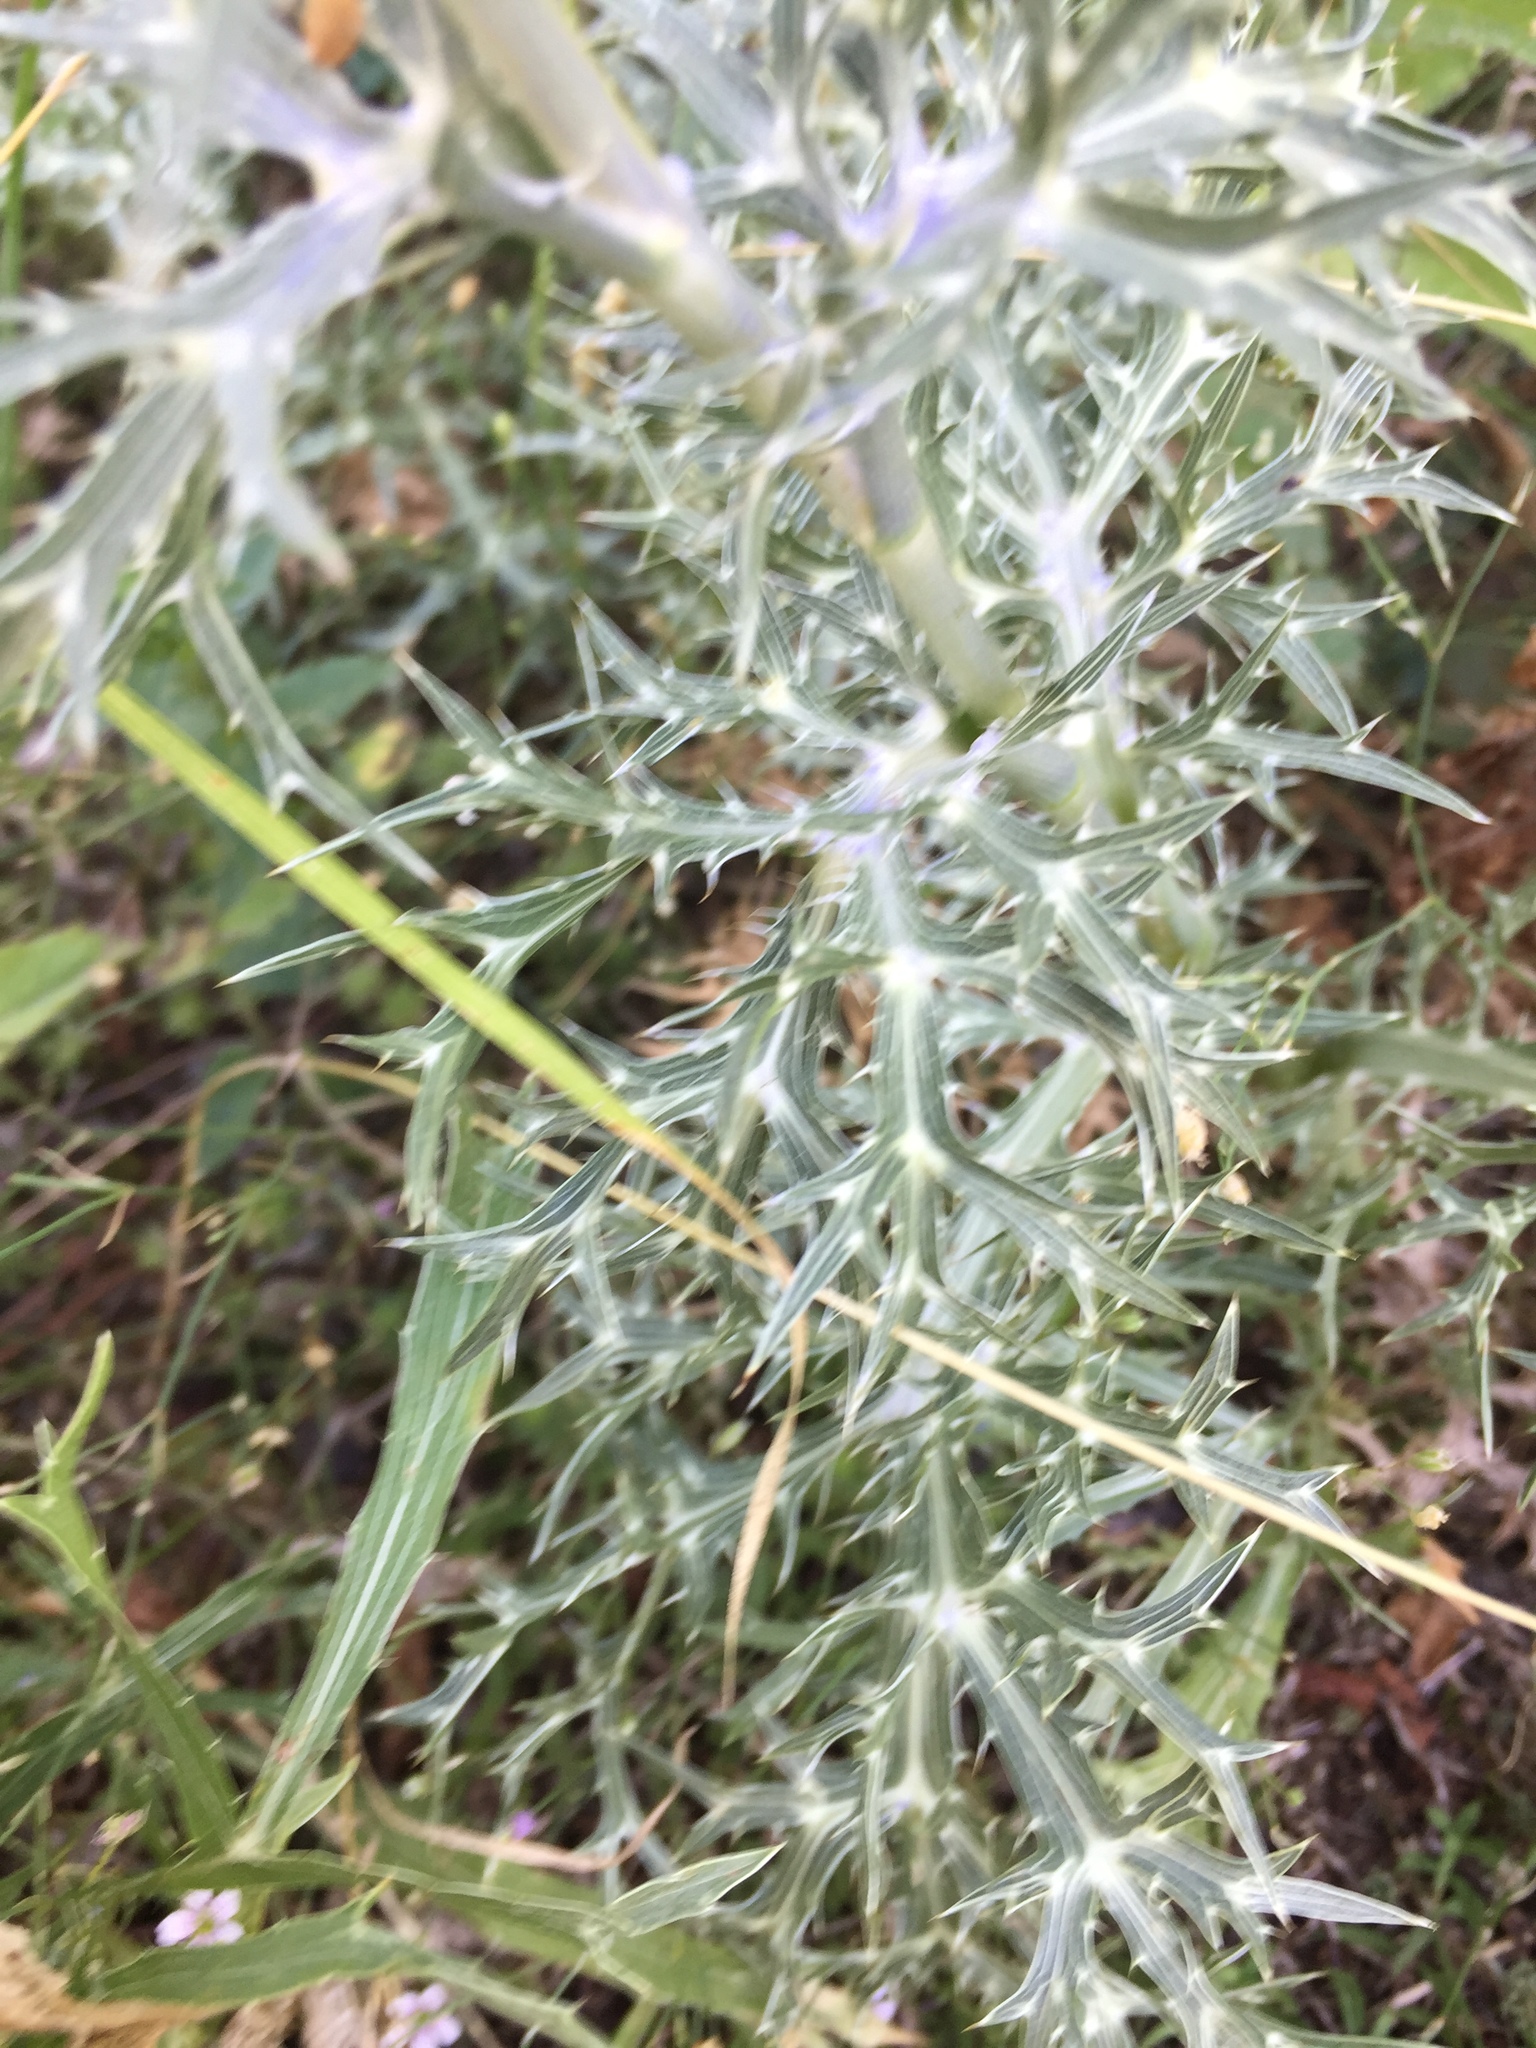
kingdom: Plantae
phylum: Tracheophyta
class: Magnoliopsida
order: Asterales
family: Asteraceae
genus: Echinops
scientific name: Echinops ritro
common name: Globe thistle
